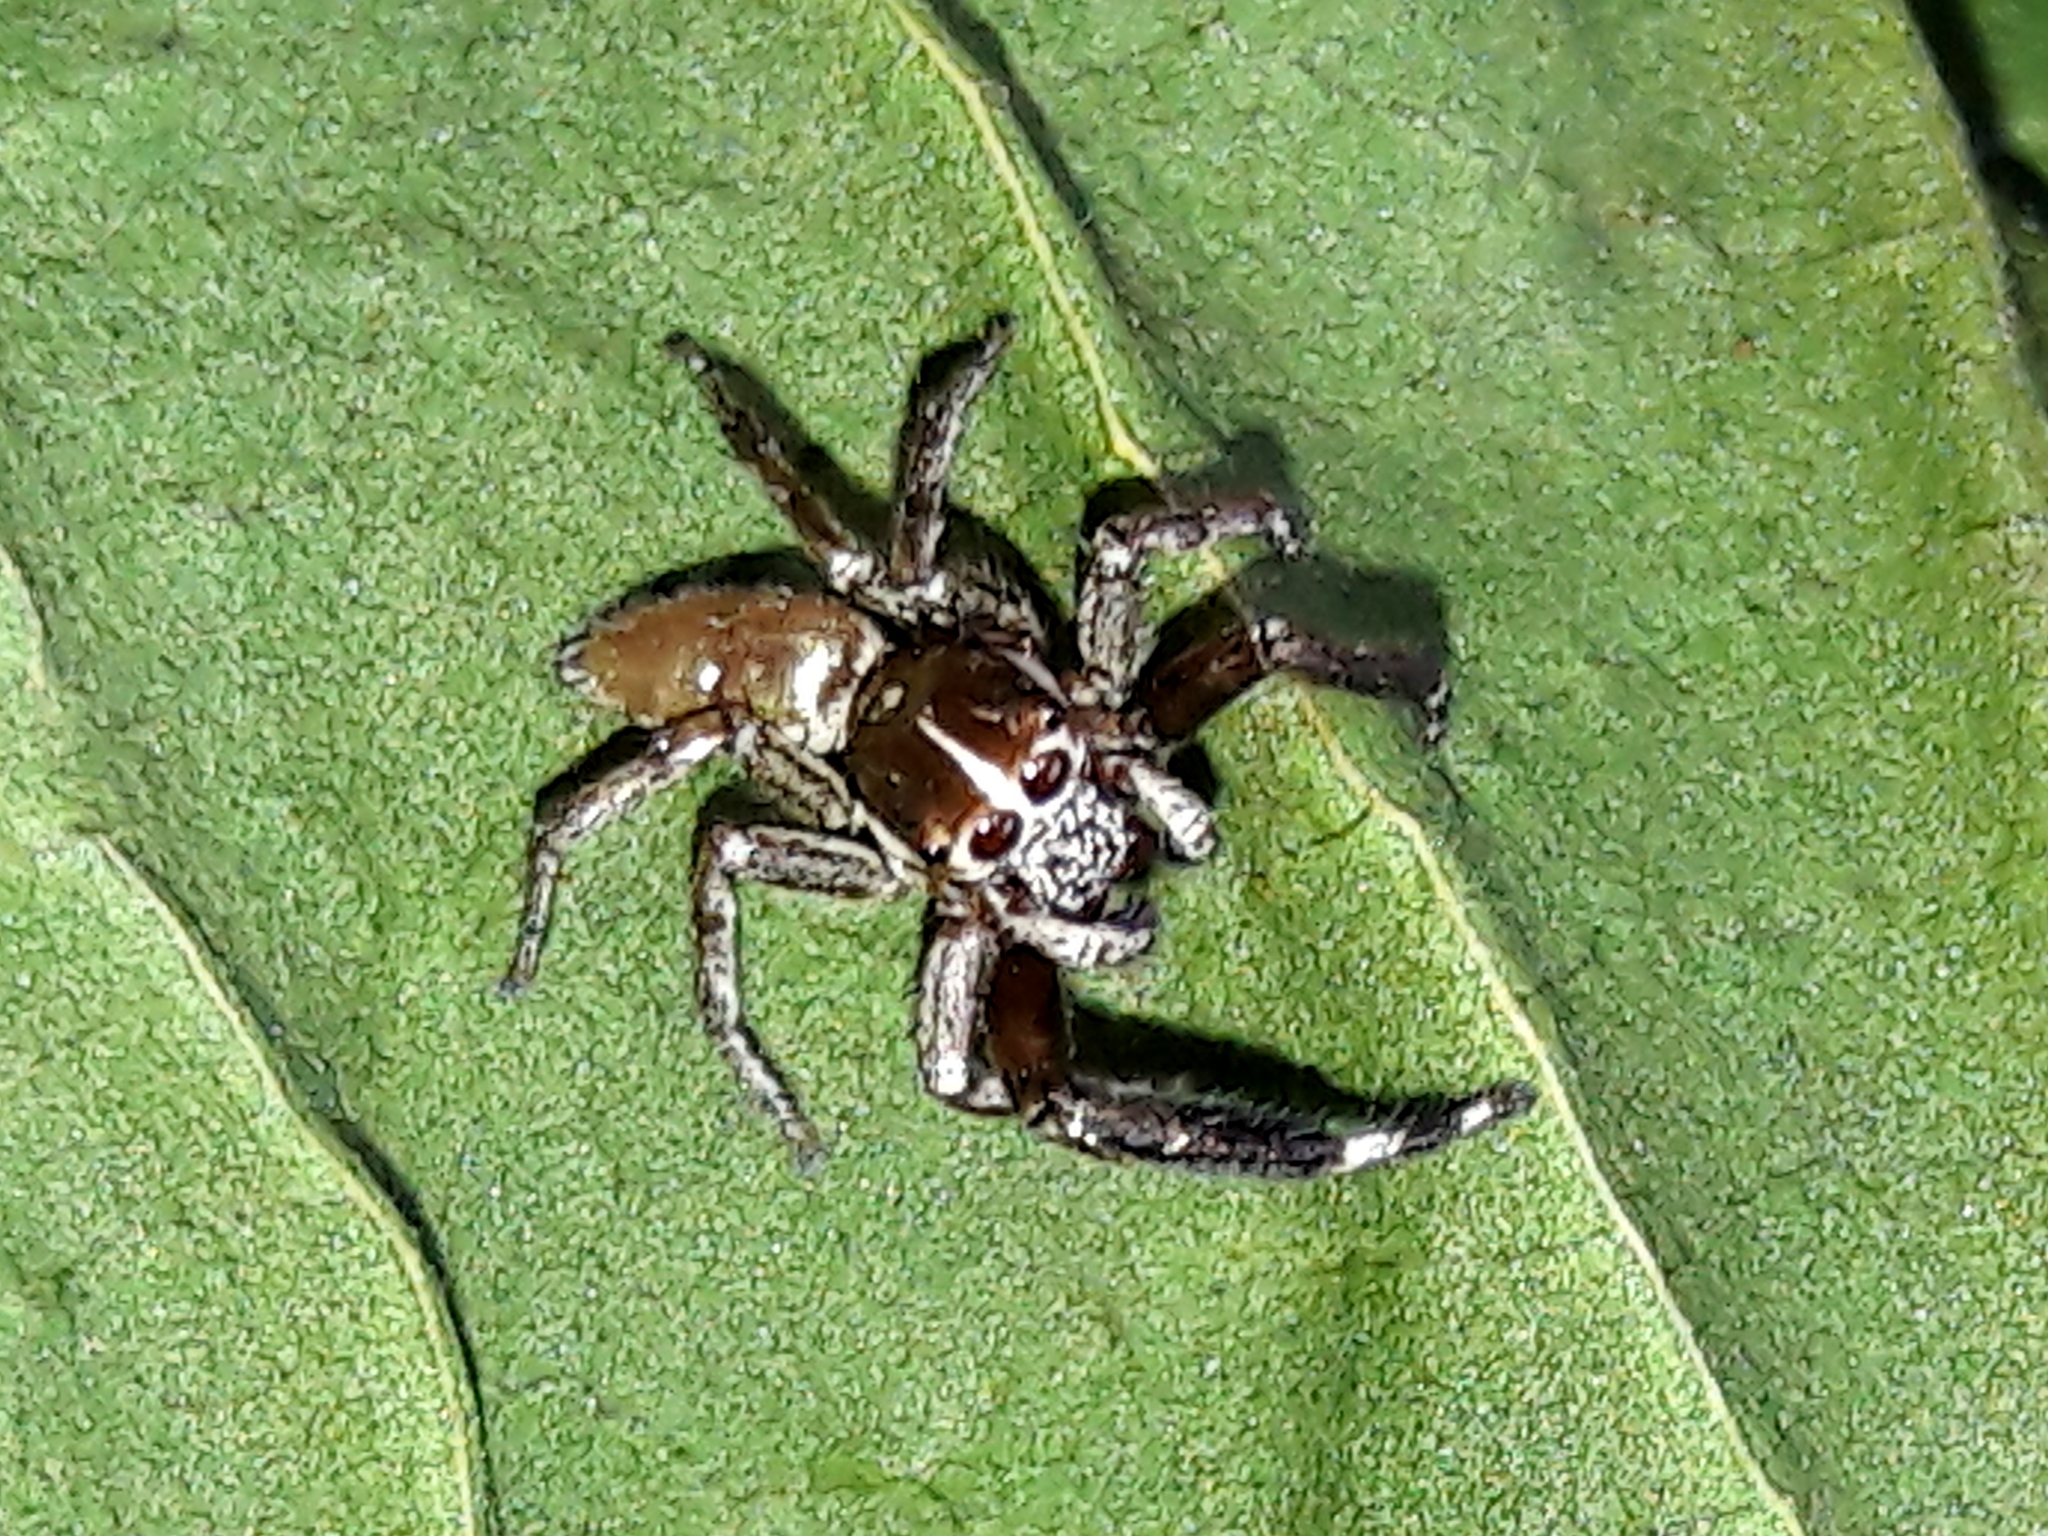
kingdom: Animalia
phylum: Arthropoda
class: Arachnida
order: Araneae
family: Salticidae
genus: Philira
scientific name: Philira micans
